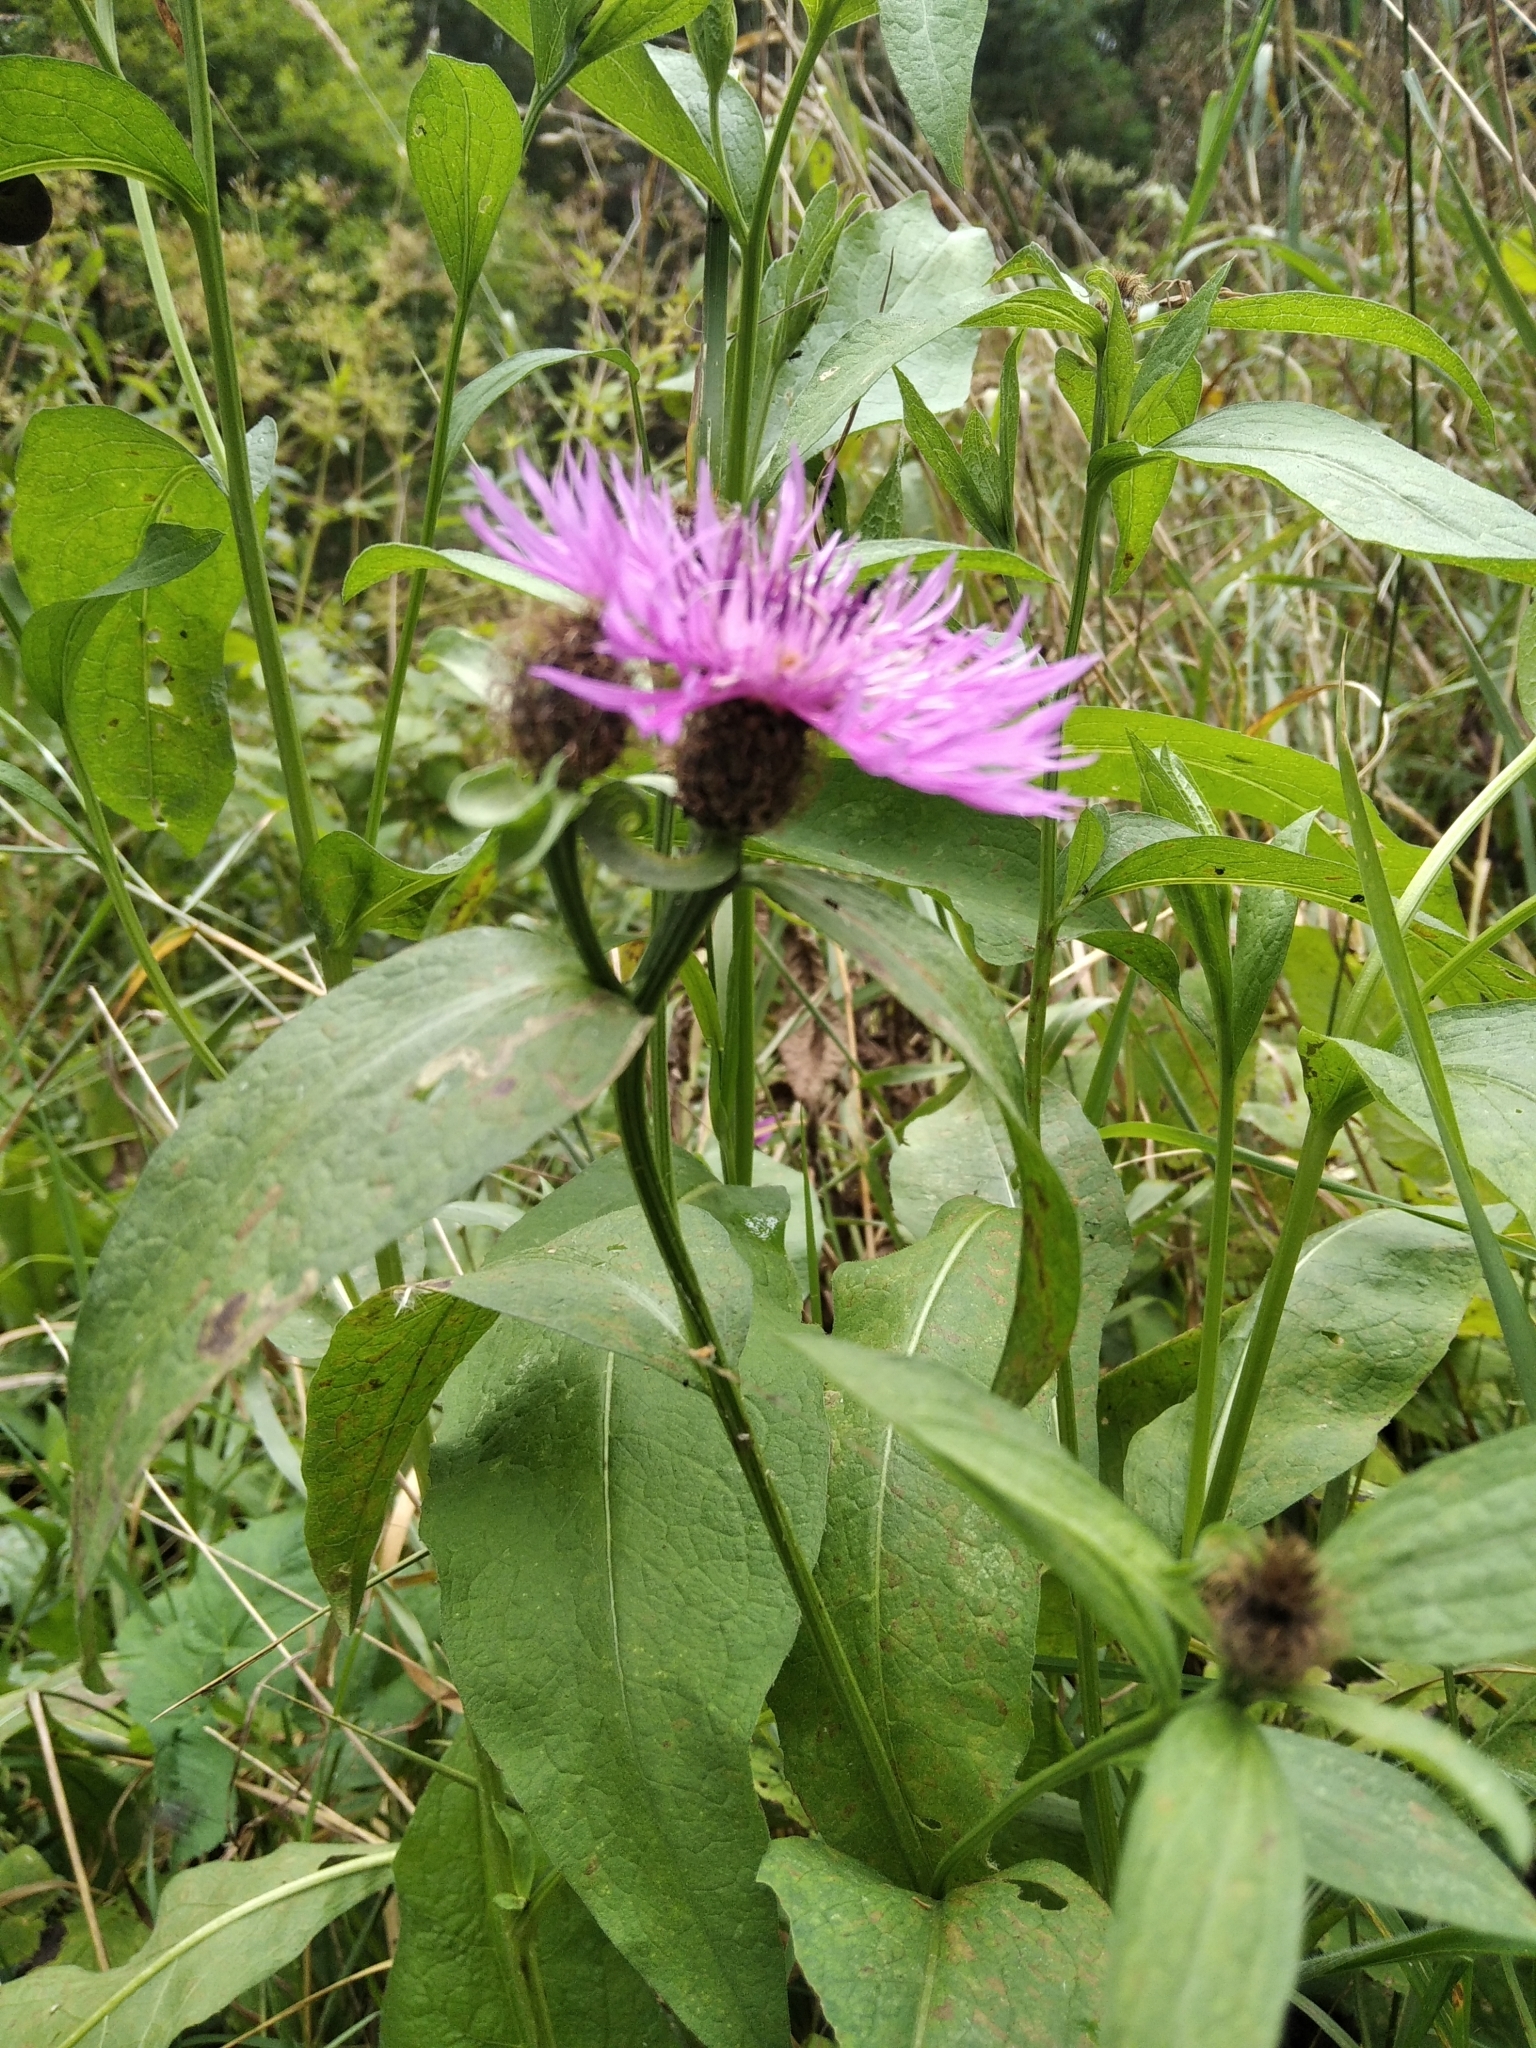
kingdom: Plantae
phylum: Tracheophyta
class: Magnoliopsida
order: Asterales
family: Asteraceae
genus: Centaurea
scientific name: Centaurea phrygia
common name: Wig knapweed
